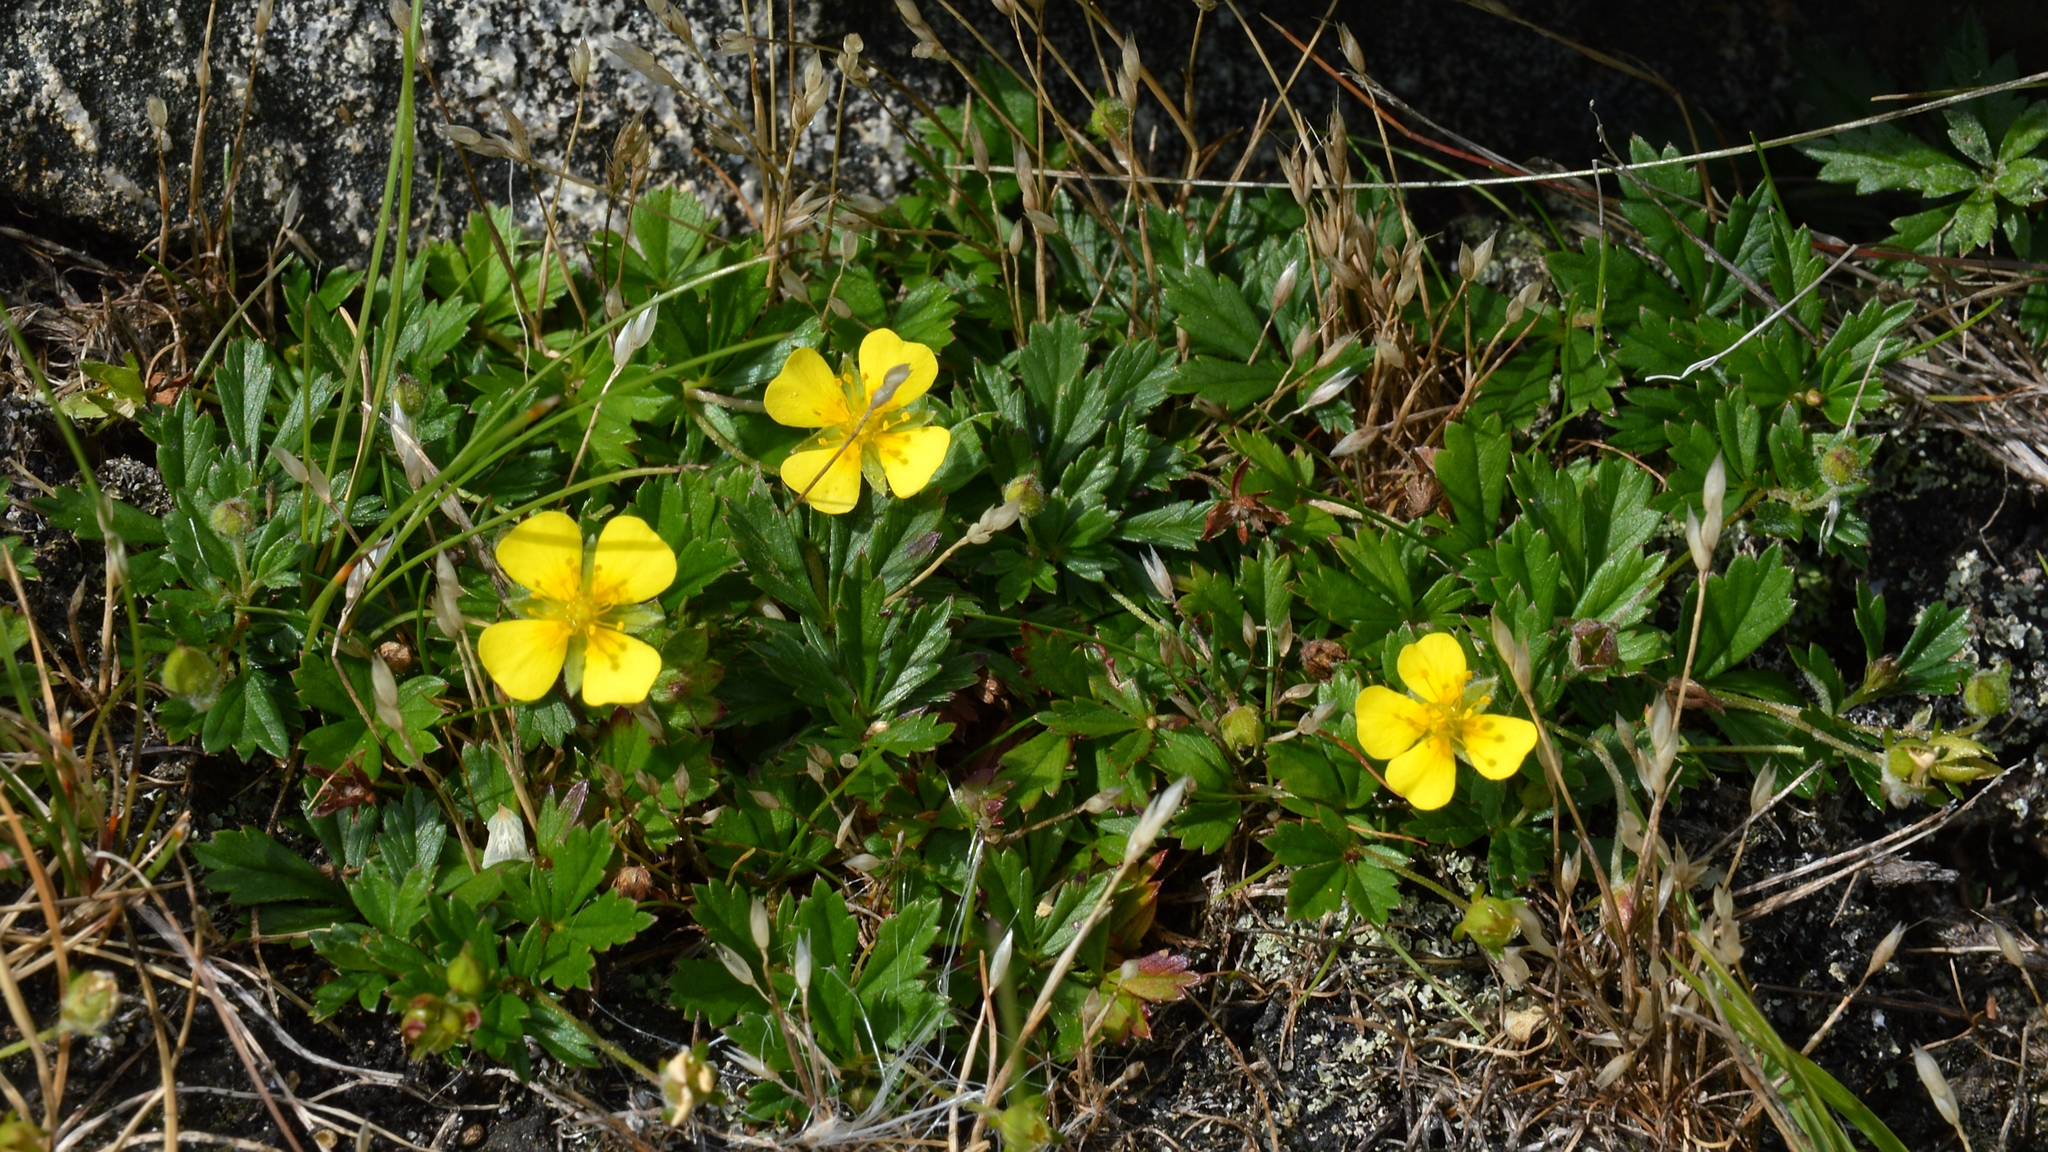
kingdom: Plantae
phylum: Tracheophyta
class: Magnoliopsida
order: Rosales
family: Rosaceae
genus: Potentilla
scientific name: Potentilla erecta
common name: Tormentil
